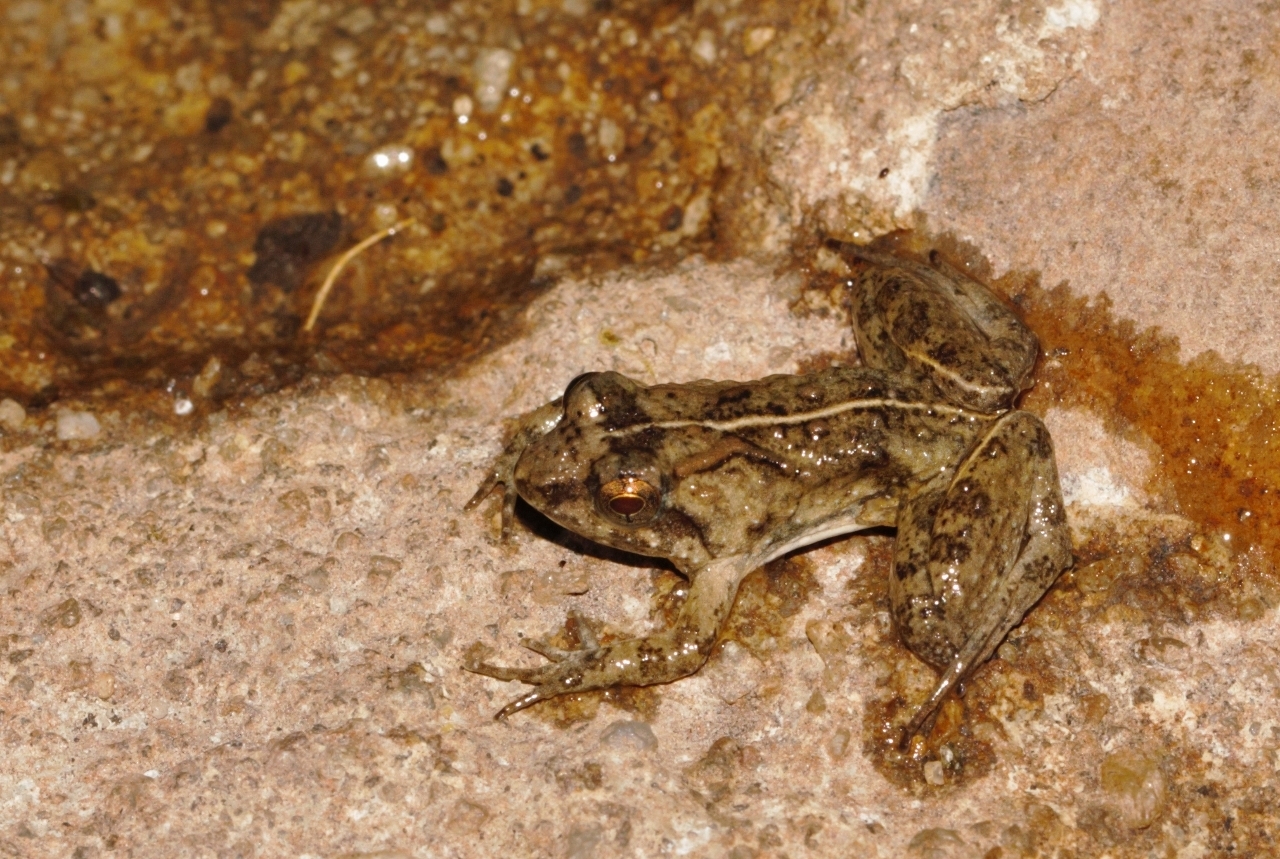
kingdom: Animalia
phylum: Chordata
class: Amphibia
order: Anura
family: Phrynobatrachidae
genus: Phrynobatrachus
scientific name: Phrynobatrachus acridoides
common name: East african puddle frog
